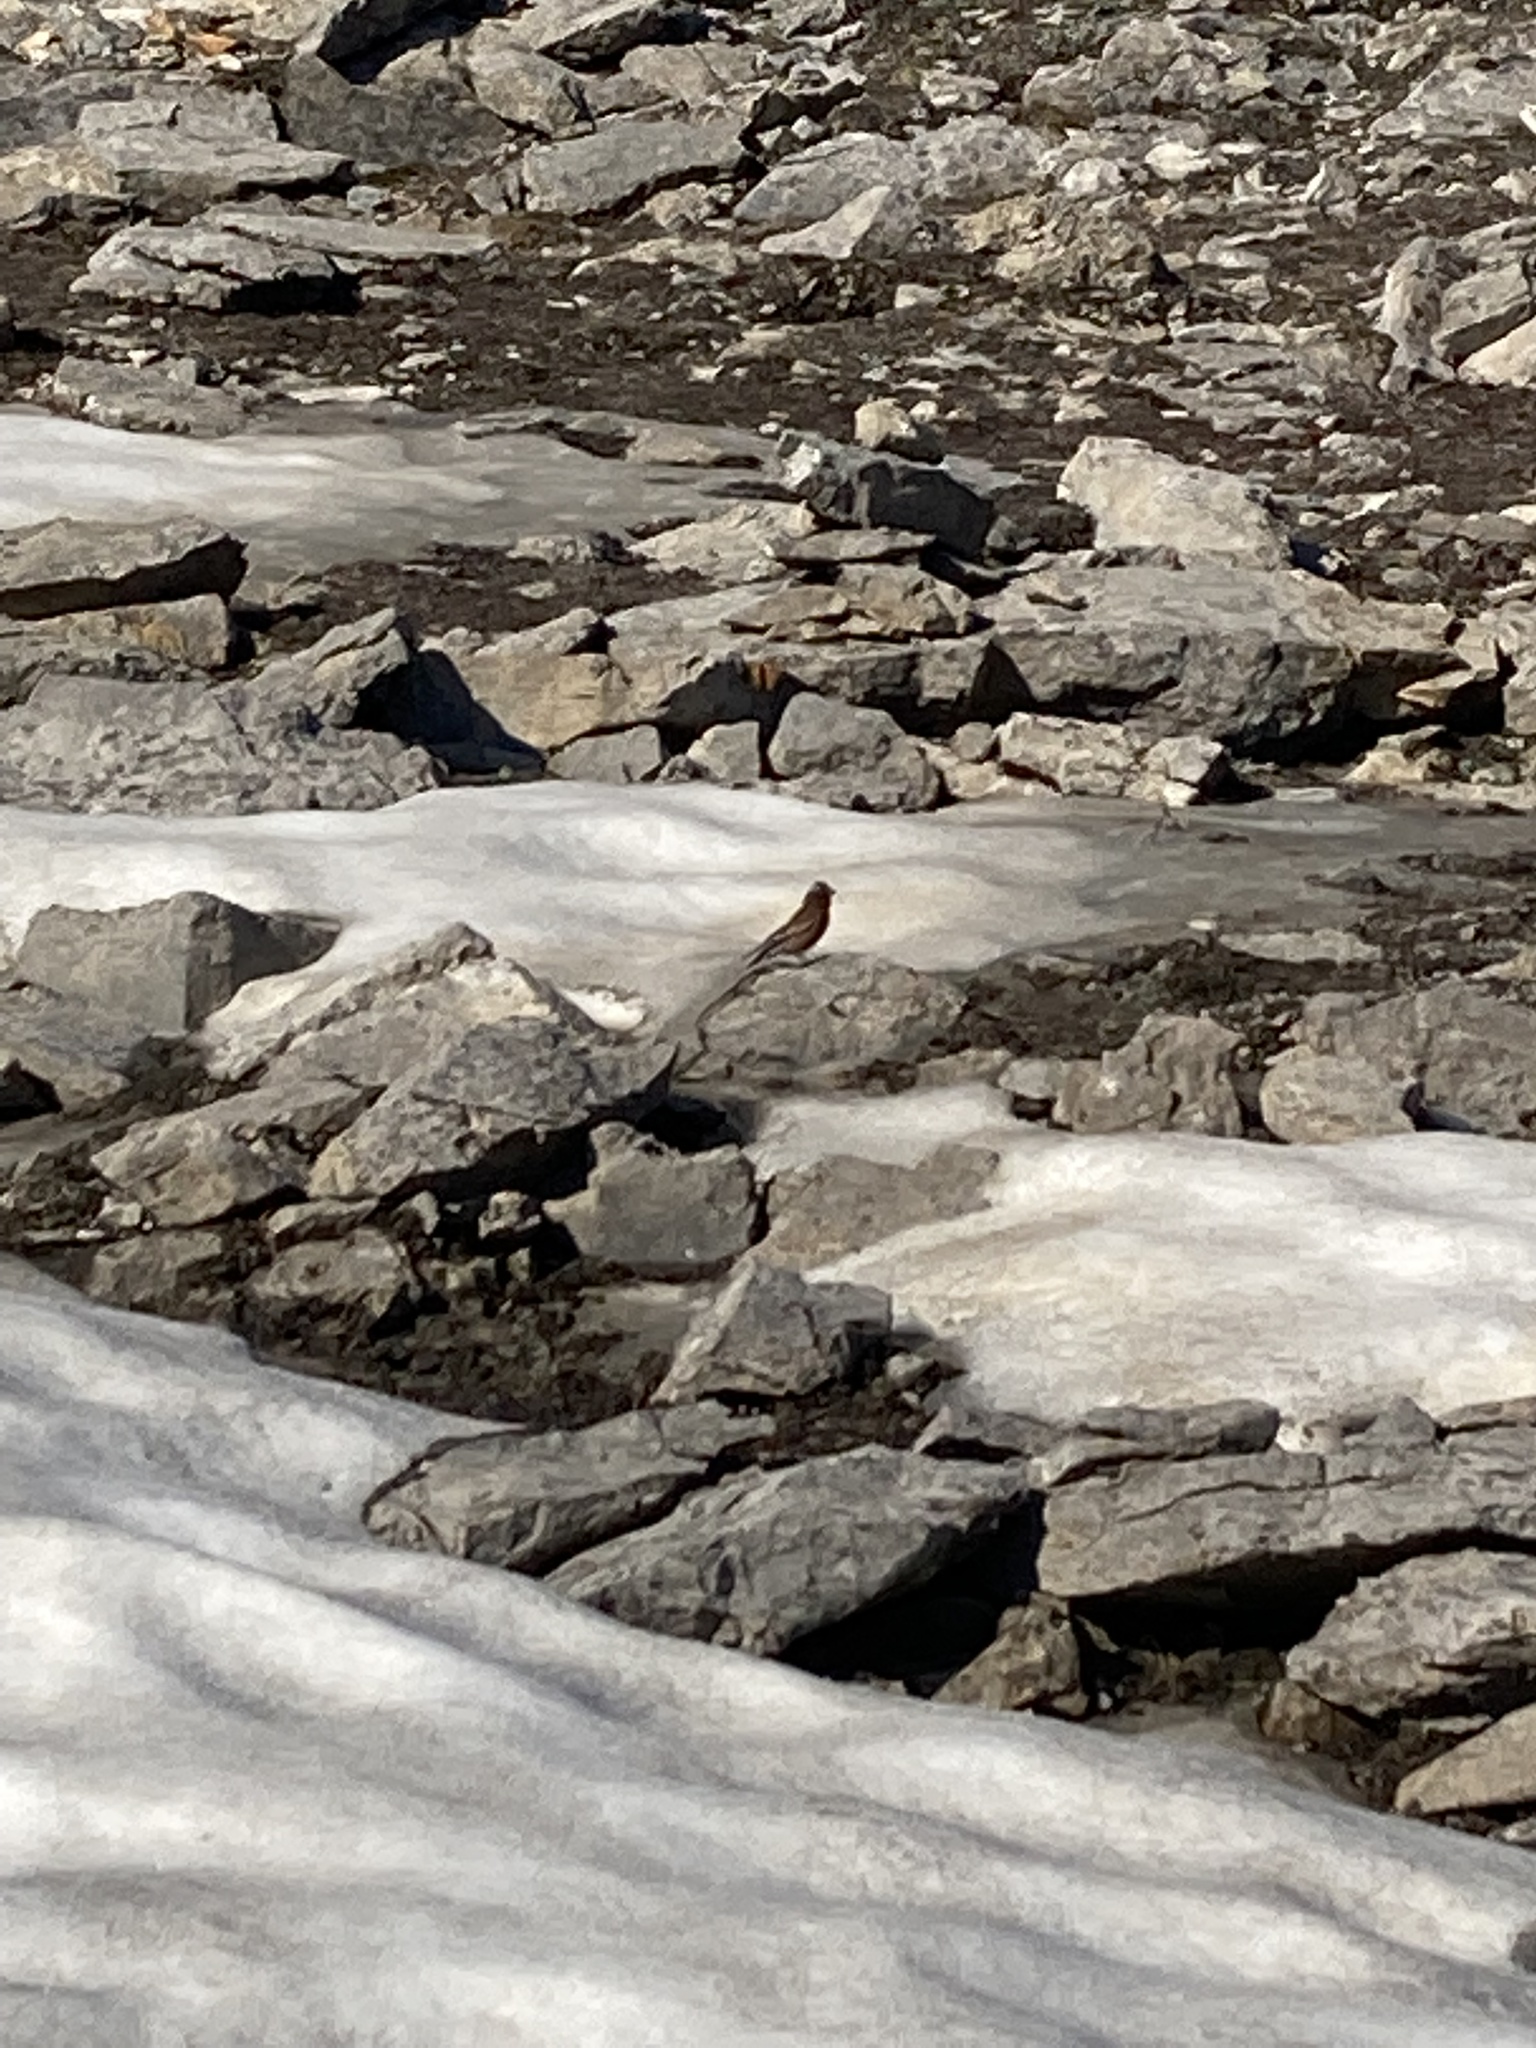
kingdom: Animalia
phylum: Chordata
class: Aves
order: Passeriformes
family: Fringillidae
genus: Leucosticte
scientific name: Leucosticte tephrocotis
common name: Gray-crowned rosy-finch
